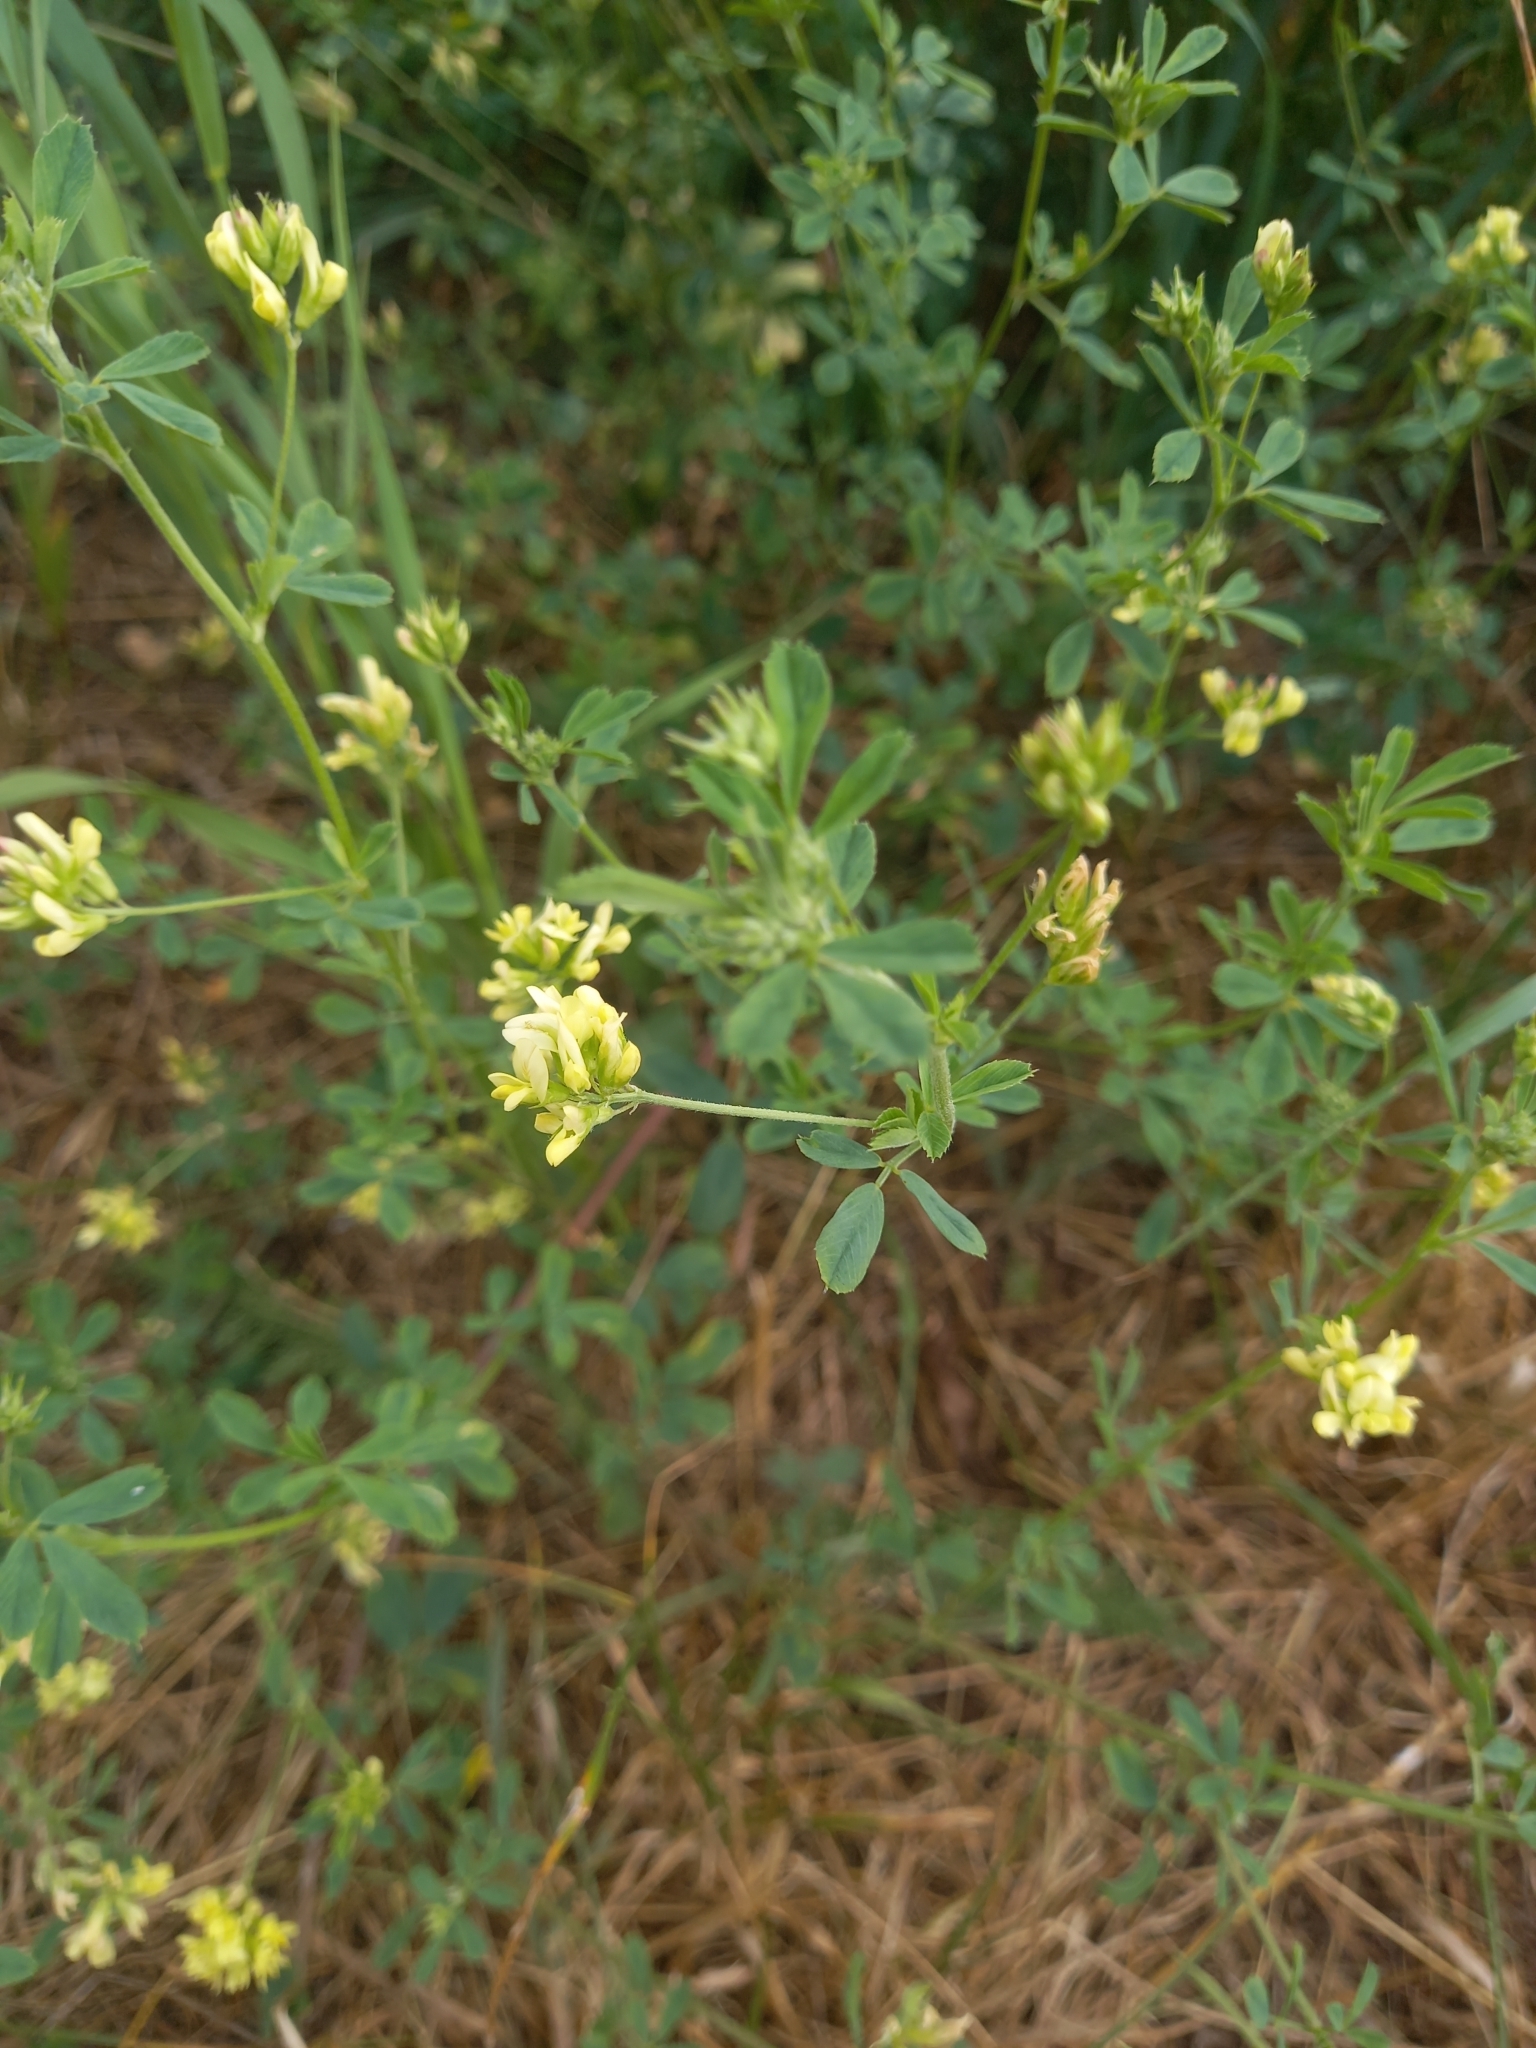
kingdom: Plantae
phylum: Tracheophyta
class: Magnoliopsida
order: Fabales
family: Fabaceae
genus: Medicago
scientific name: Medicago falcata
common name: Sickle medick
